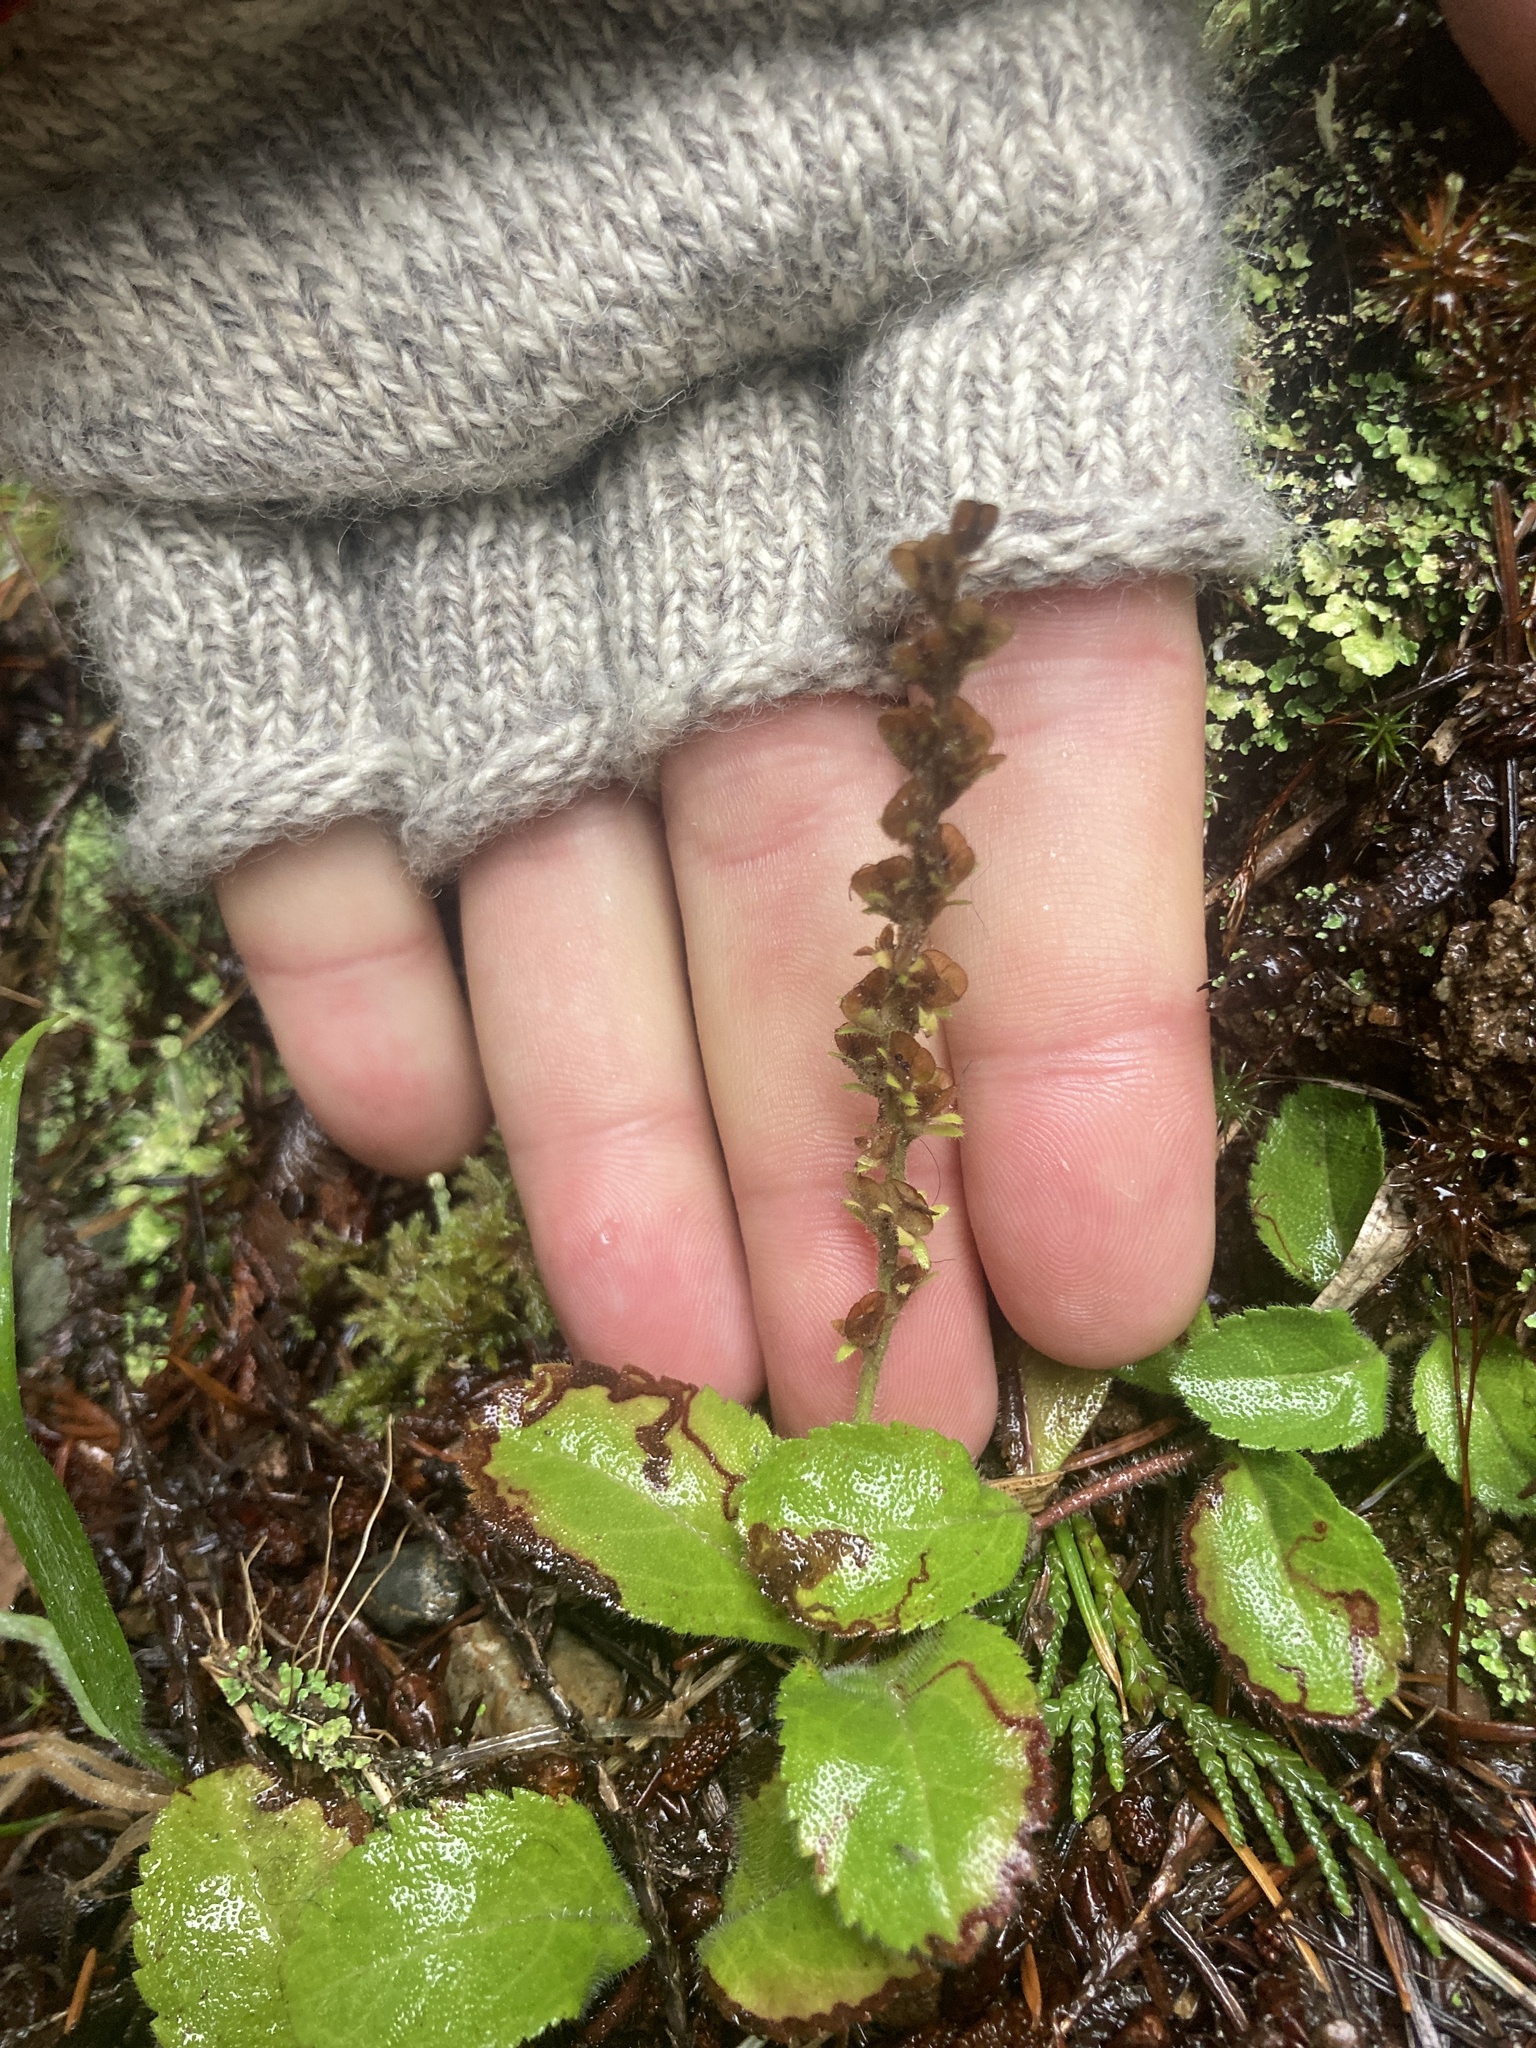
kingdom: Plantae
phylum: Tracheophyta
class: Magnoliopsida
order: Lamiales
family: Plantaginaceae
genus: Veronica
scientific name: Veronica officinalis
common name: Common speedwell
